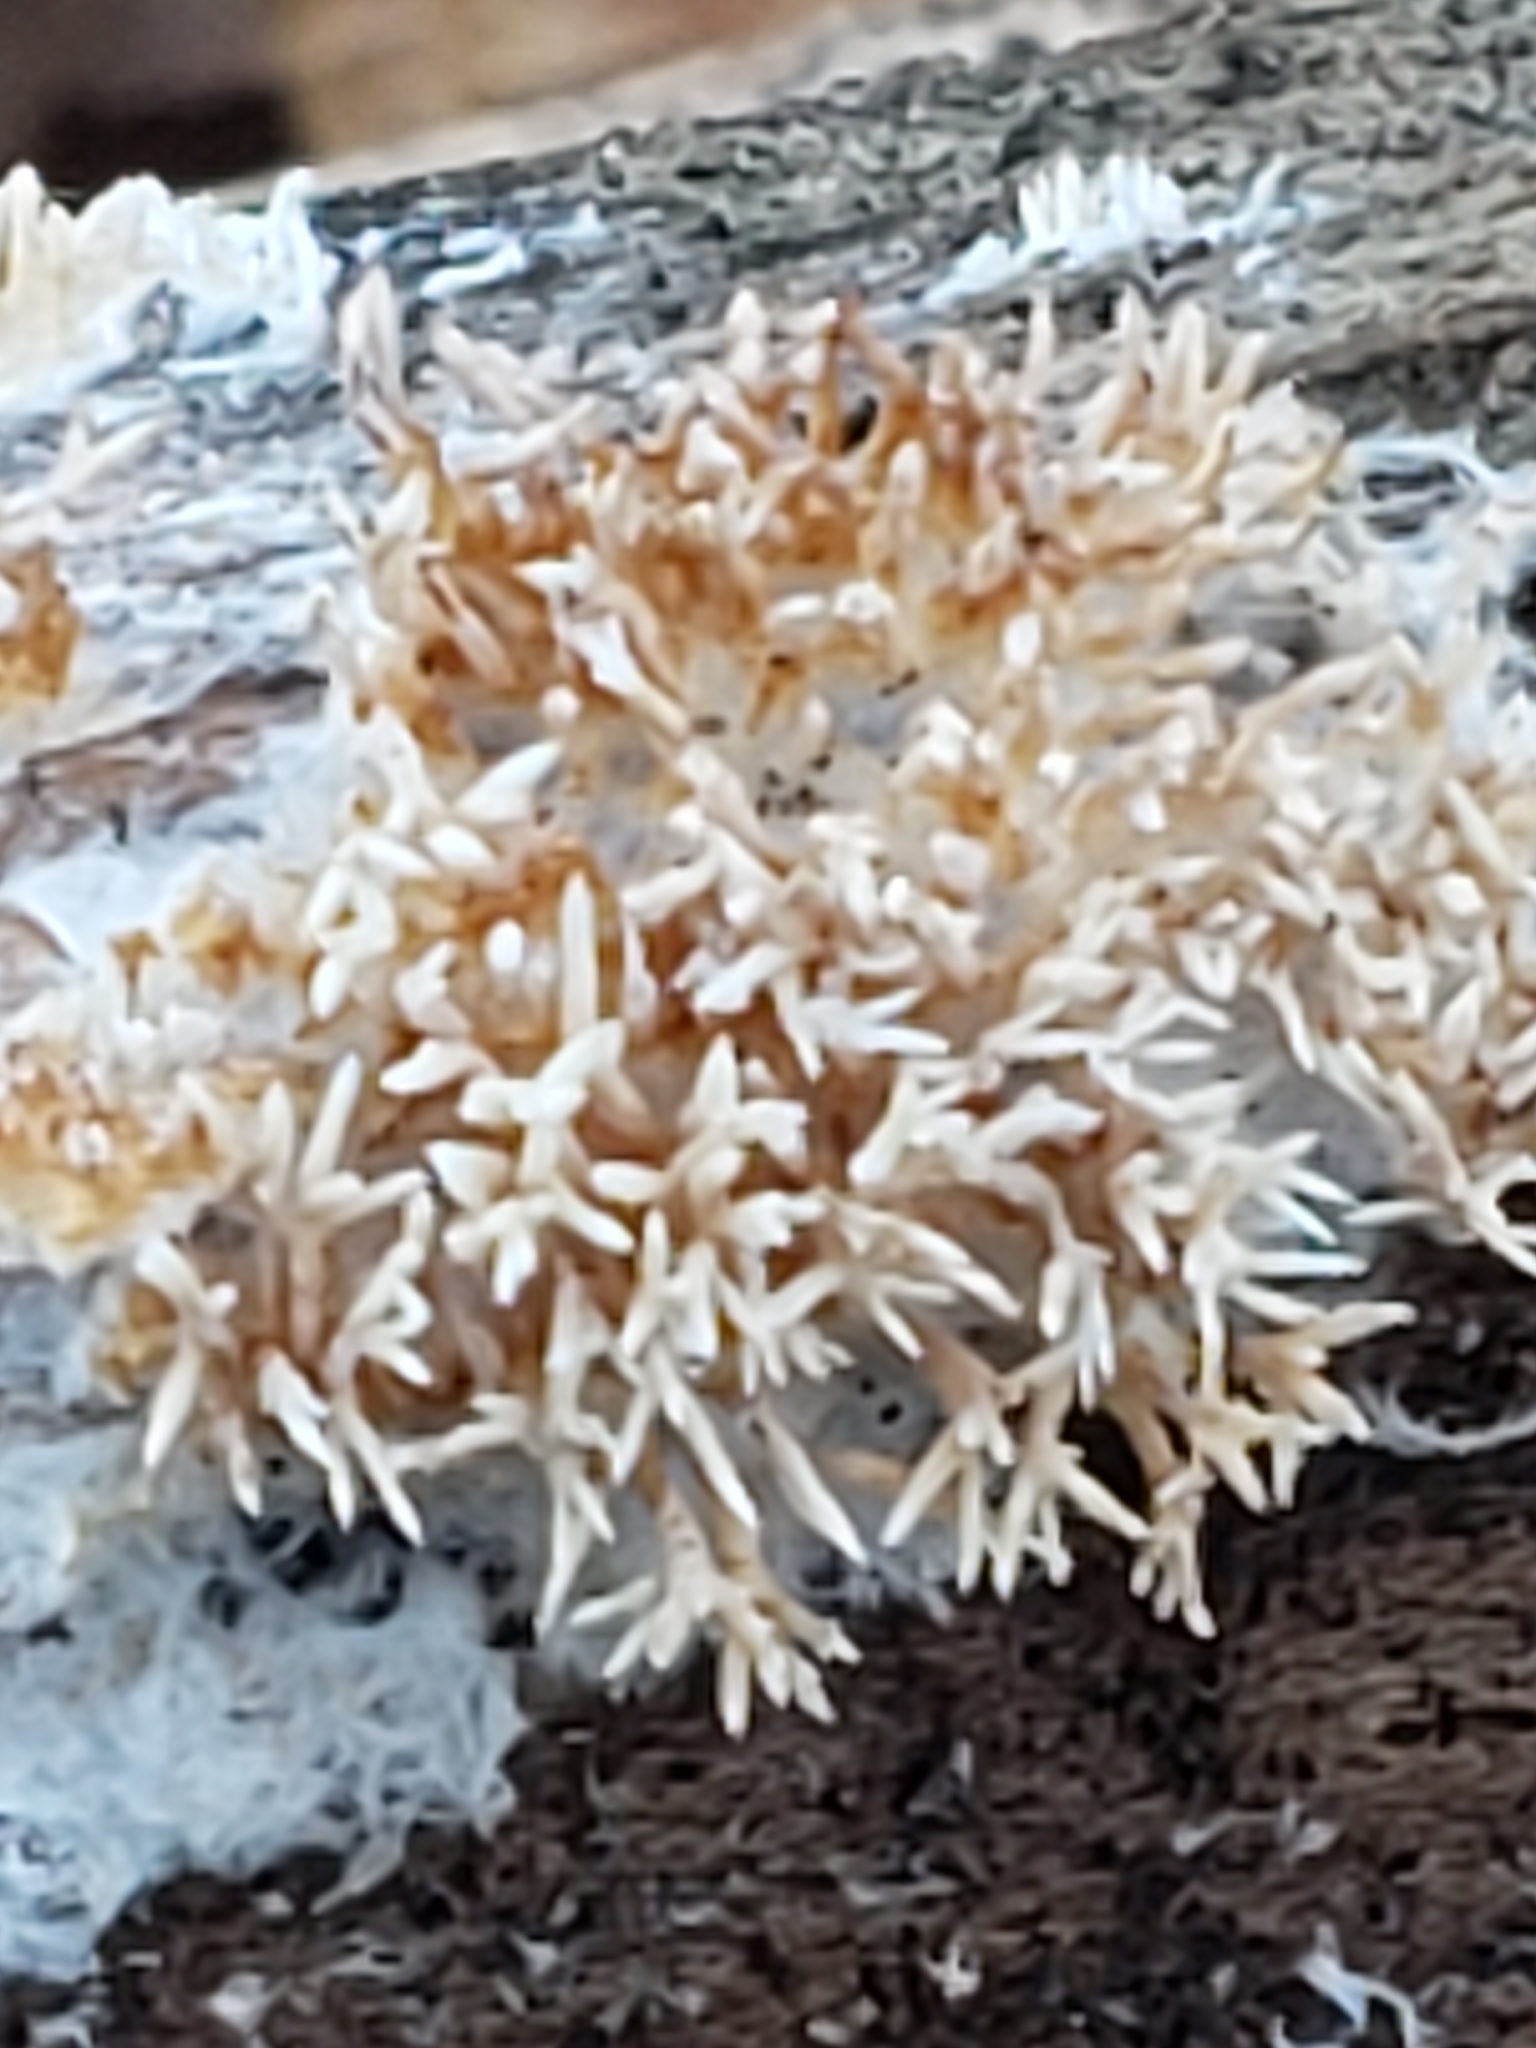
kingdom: Fungi
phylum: Basidiomycota
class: Agaricomycetes
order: Agaricales
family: Radulomycetaceae
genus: Radulomyces
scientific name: Radulomyces copelandii
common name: Asian beauty
